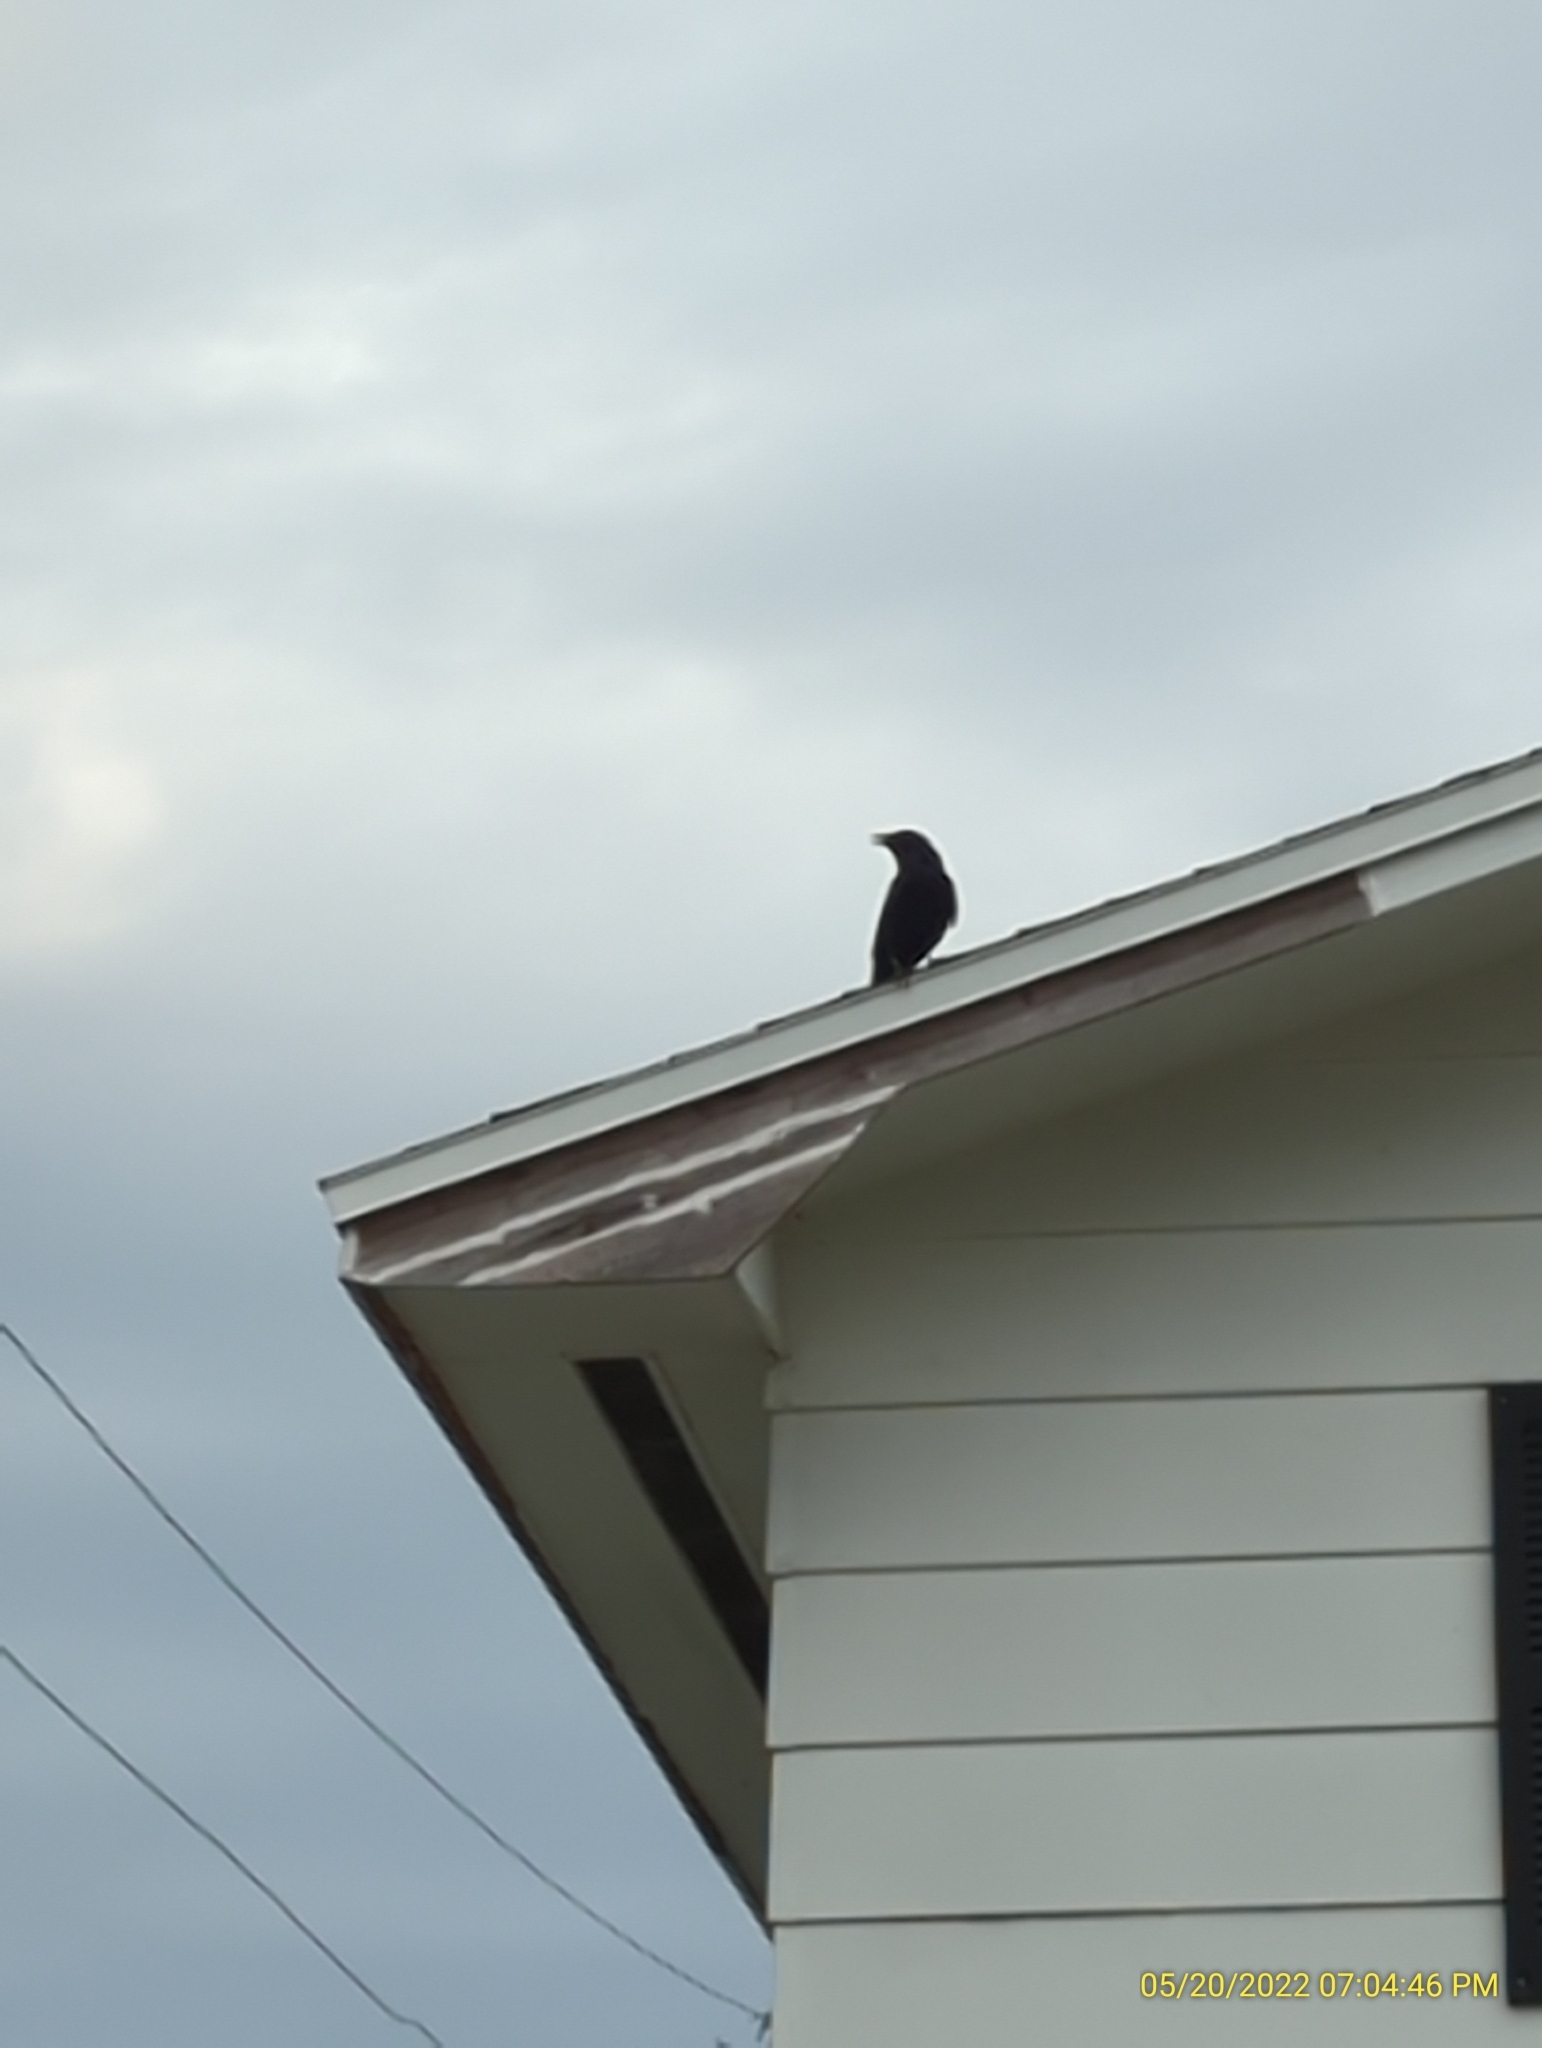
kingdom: Animalia
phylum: Chordata
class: Aves
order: Passeriformes
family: Corvidae
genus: Corvus
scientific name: Corvus ossifragus
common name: Fish crow
